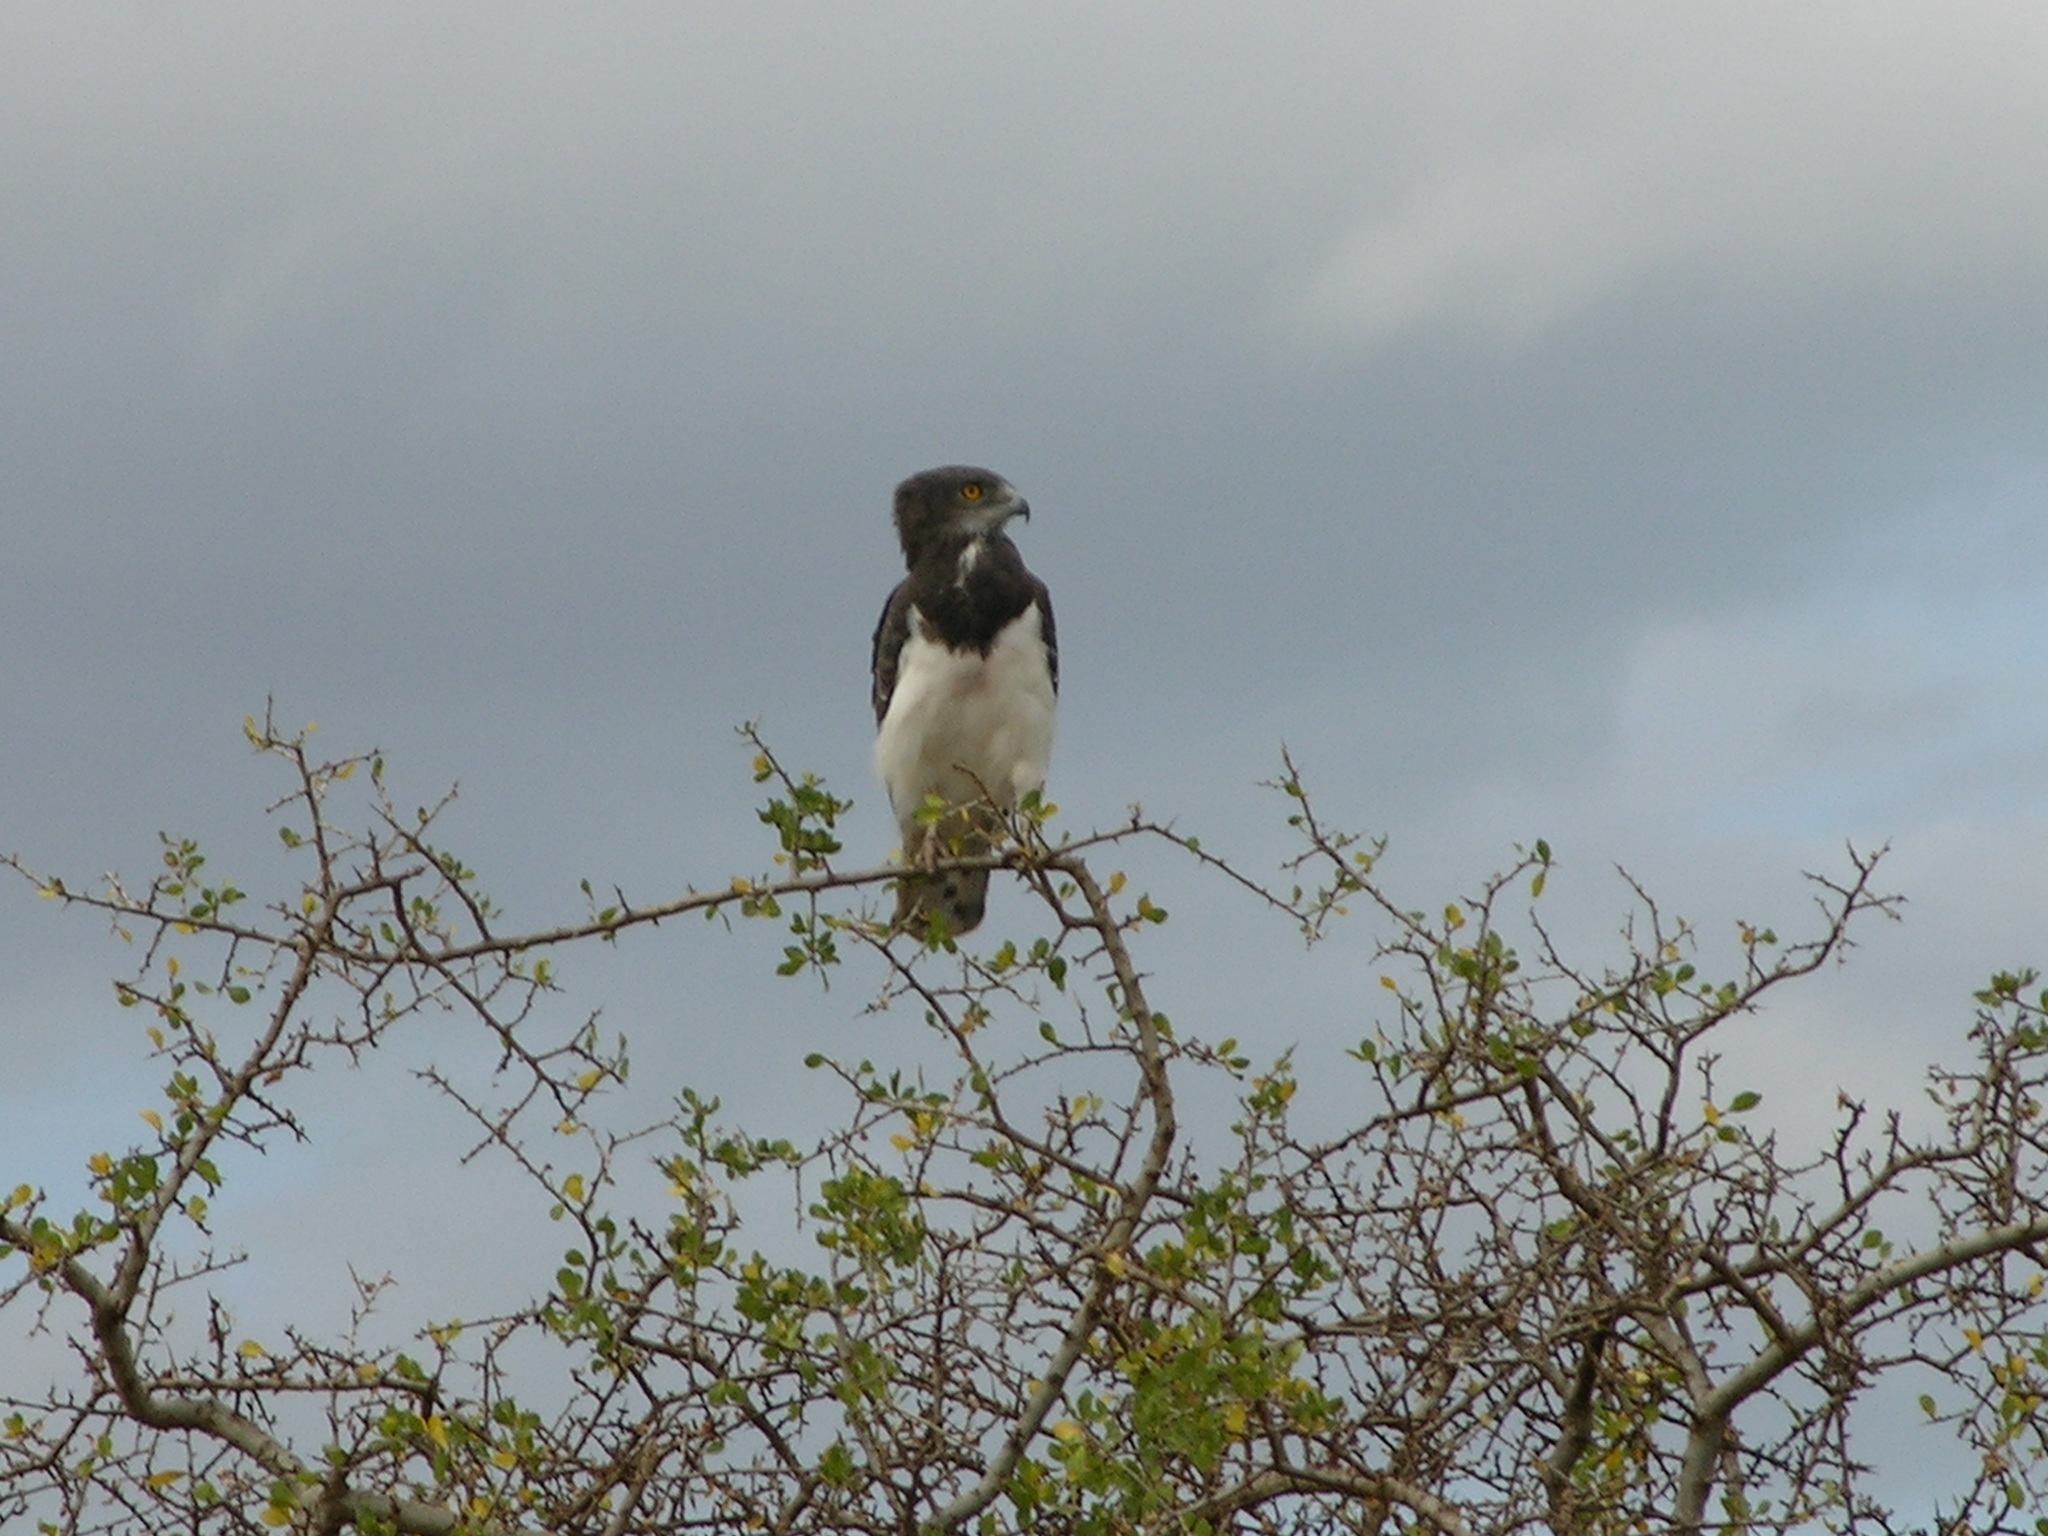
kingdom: Animalia
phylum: Chordata
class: Aves
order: Accipitriformes
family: Accipitridae
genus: Circaetus
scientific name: Circaetus pectoralis
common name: Black-chested snake eagle
